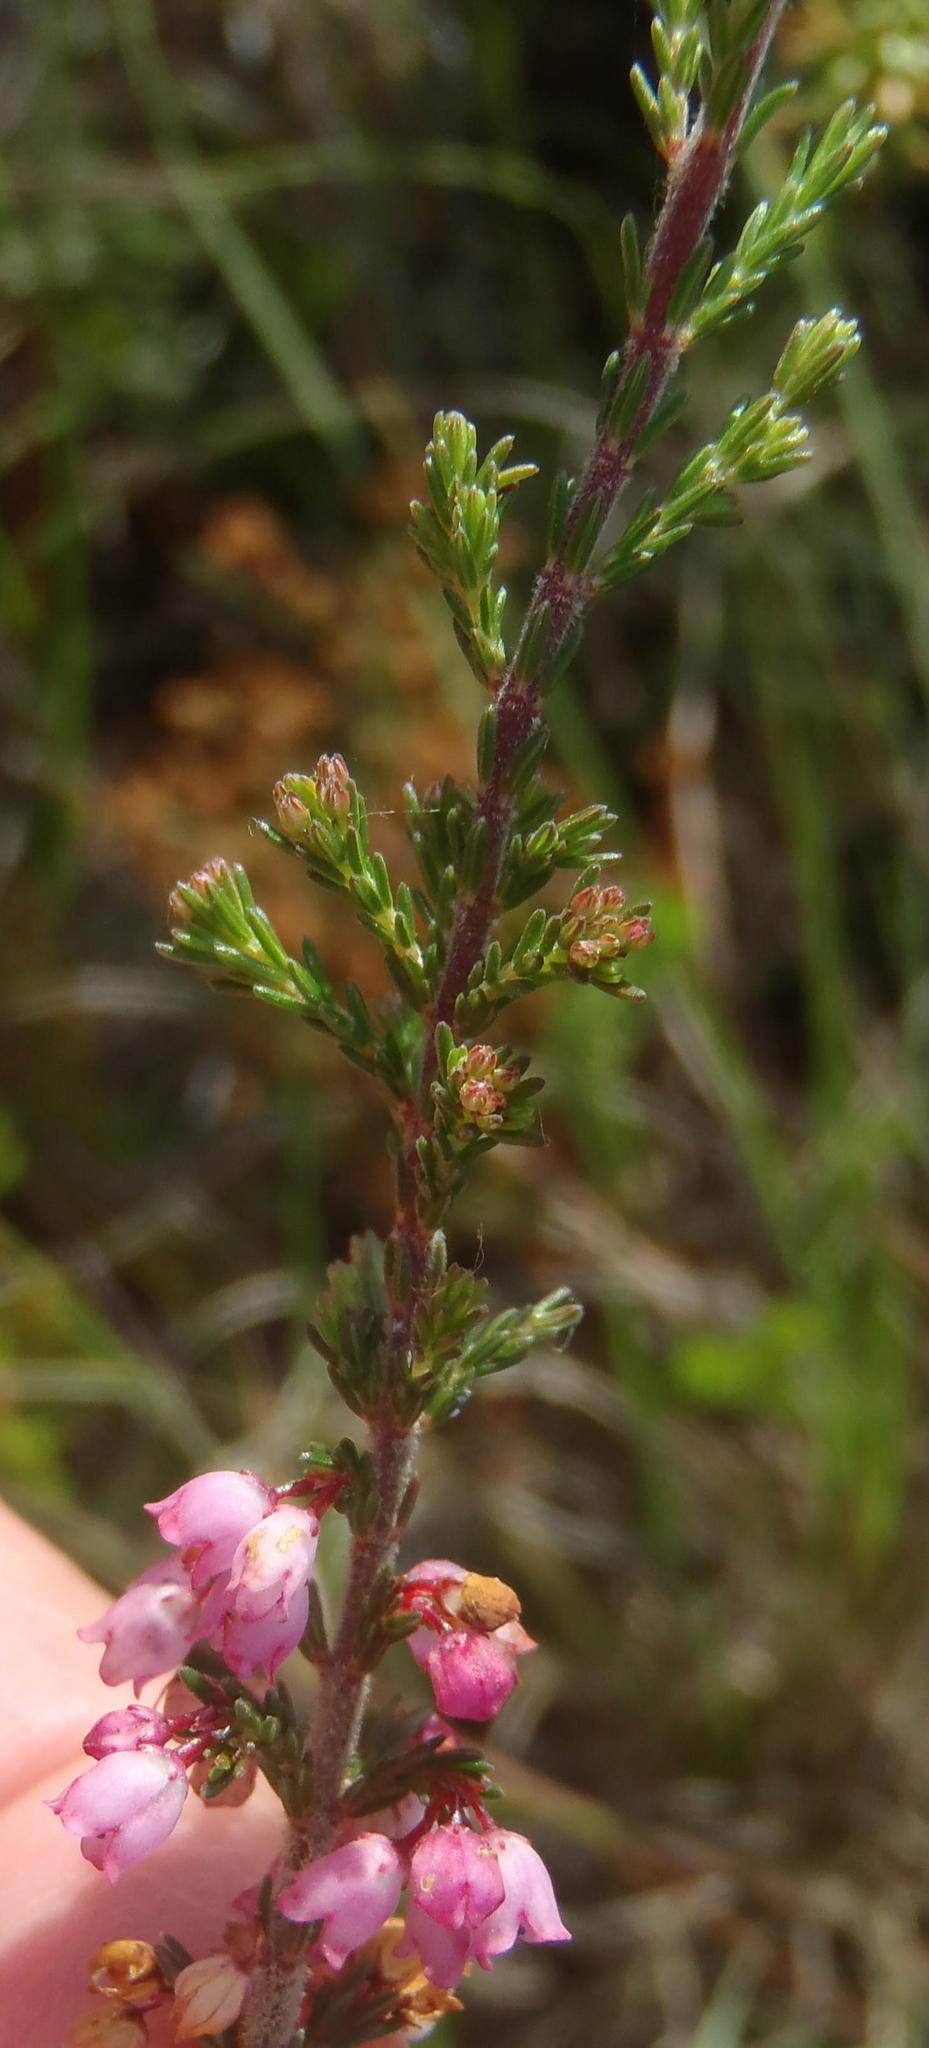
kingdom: Plantae
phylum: Tracheophyta
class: Magnoliopsida
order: Ericales
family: Ericaceae
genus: Erica
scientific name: Erica quadrangularis
